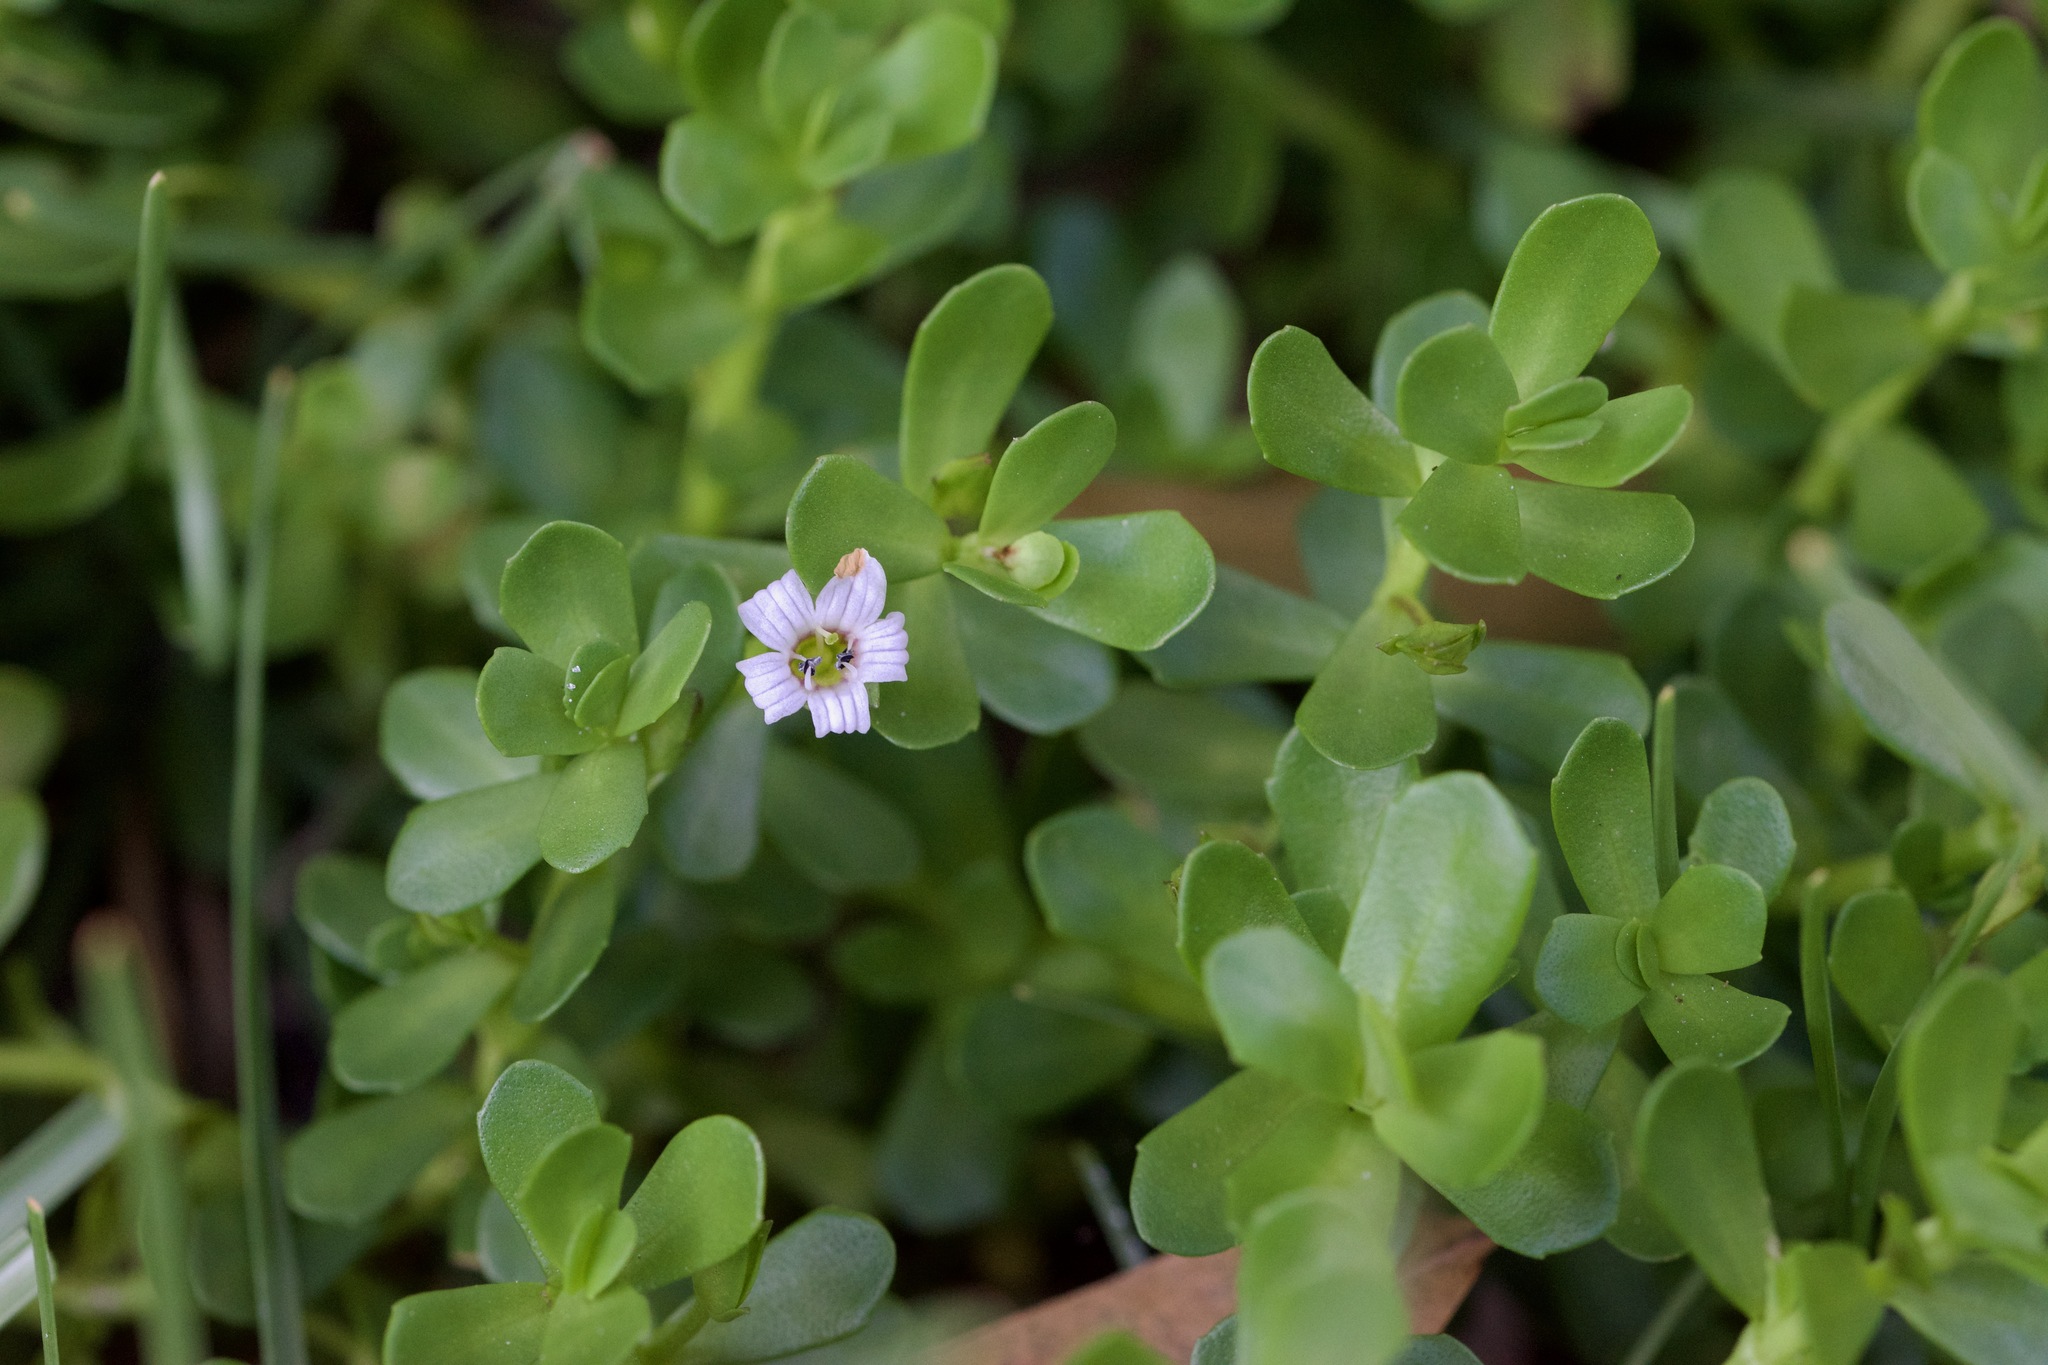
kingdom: Plantae
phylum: Tracheophyta
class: Magnoliopsida
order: Lamiales
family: Plantaginaceae
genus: Bacopa
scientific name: Bacopa monnieri
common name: Indian-pennywort
